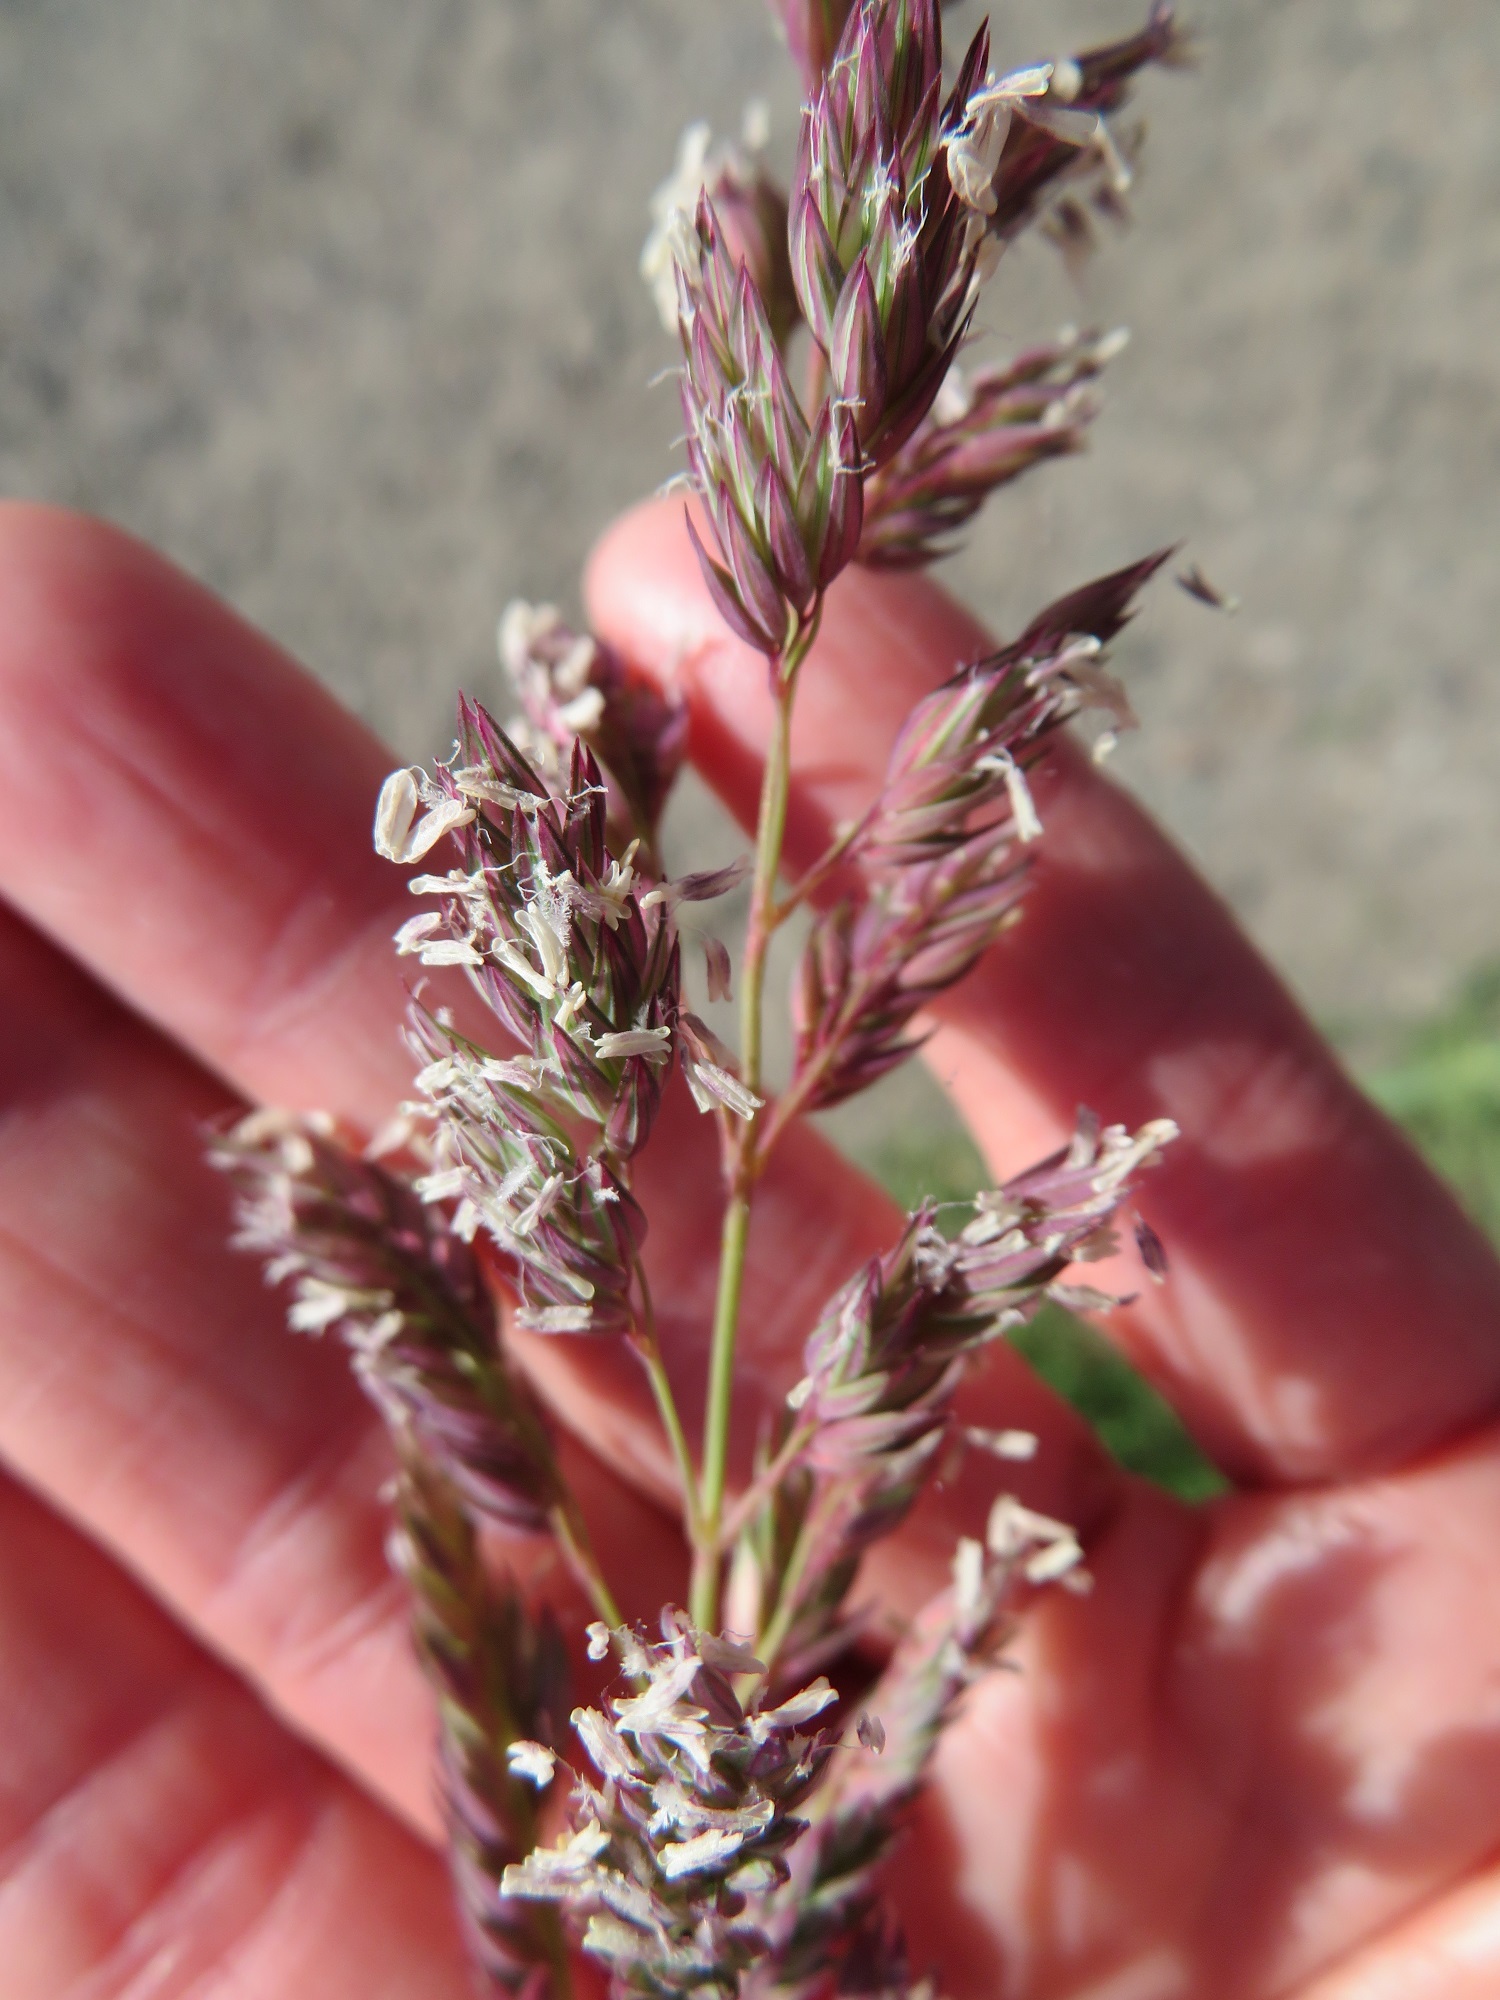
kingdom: Plantae
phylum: Tracheophyta
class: Liliopsida
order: Poales
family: Poaceae
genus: Phalaris
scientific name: Phalaris arundinacea
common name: Reed canary-grass
